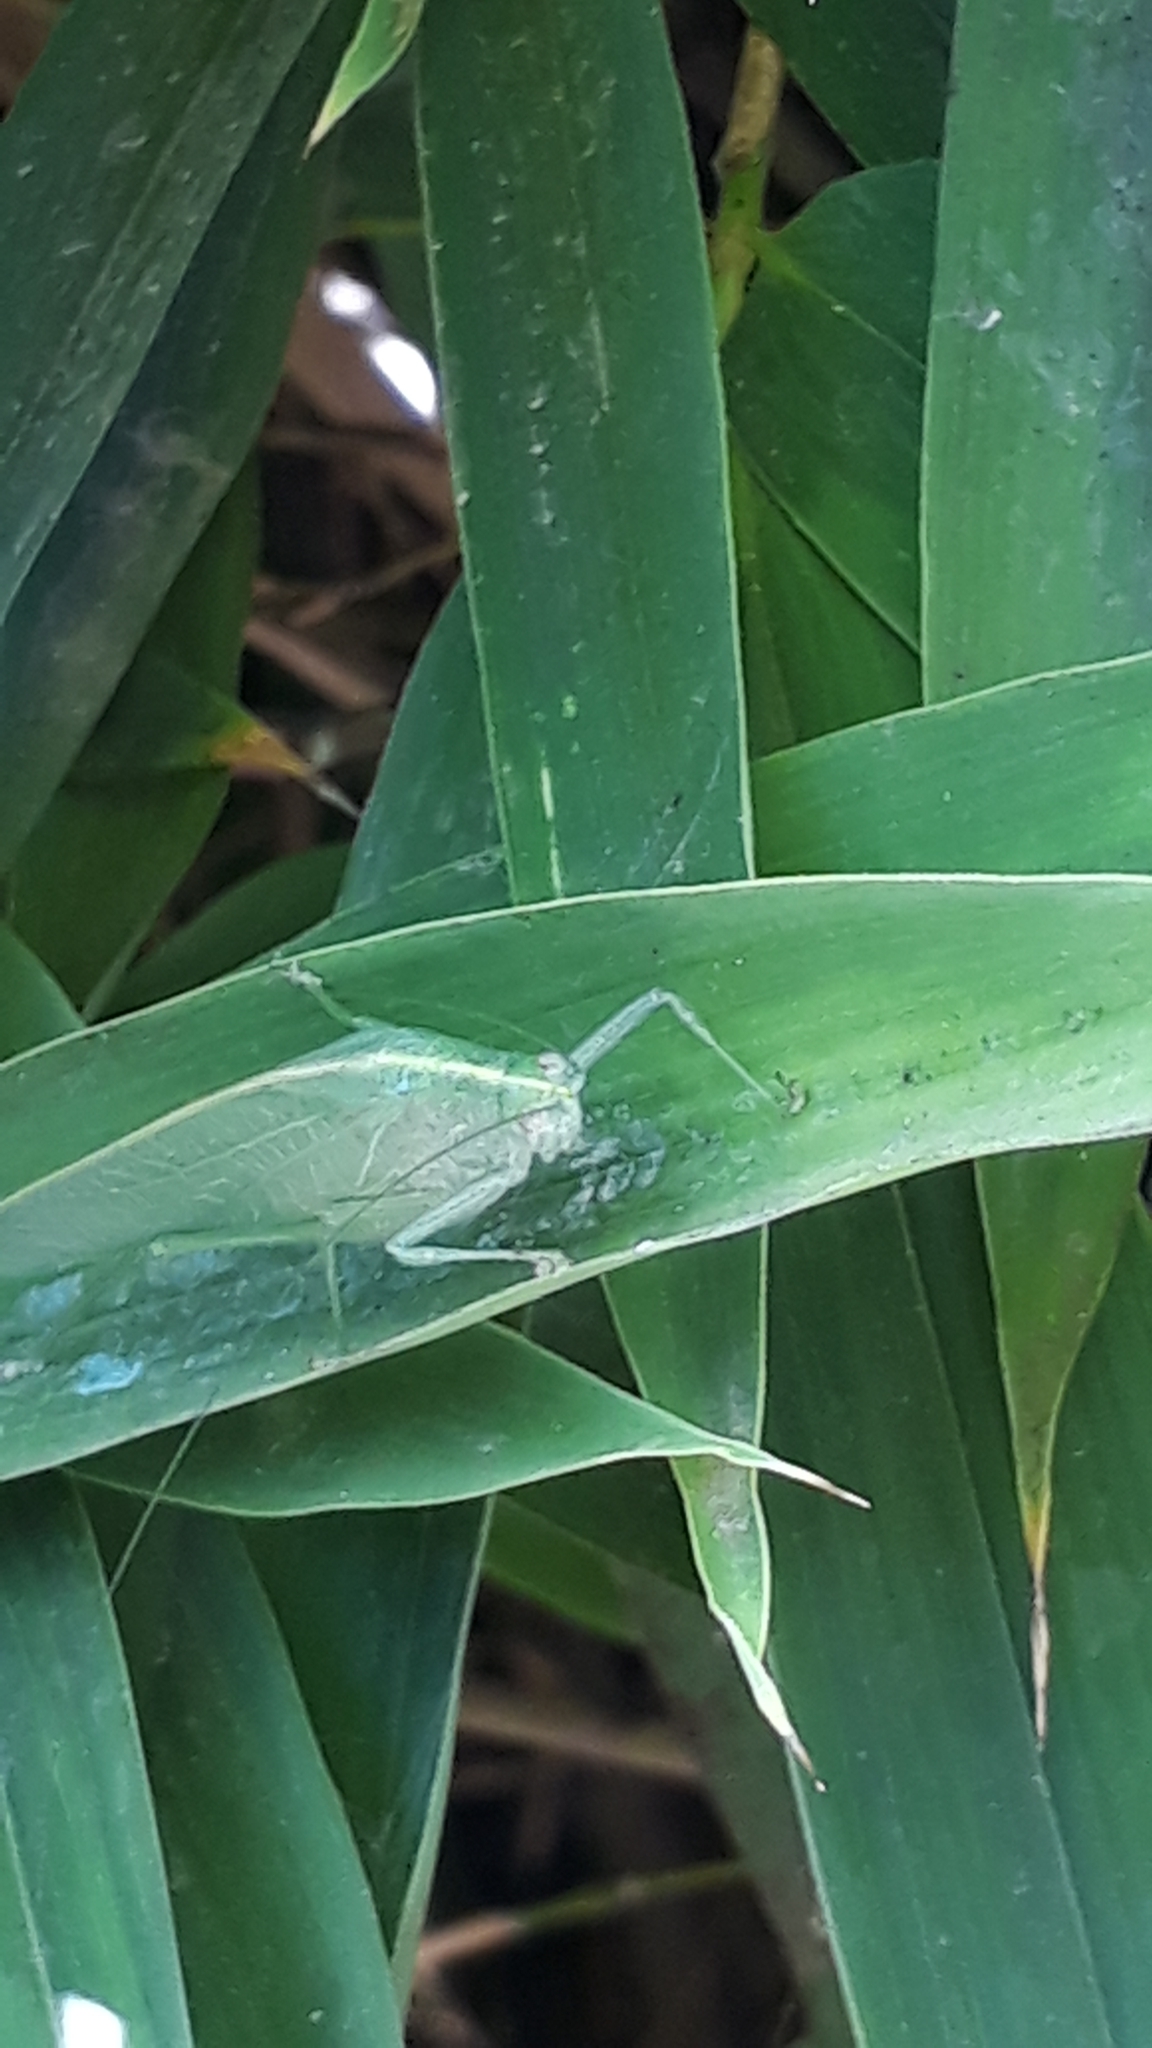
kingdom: Animalia
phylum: Arthropoda
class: Insecta
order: Orthoptera
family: Tettigoniidae
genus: Grammadera
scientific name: Grammadera clara
